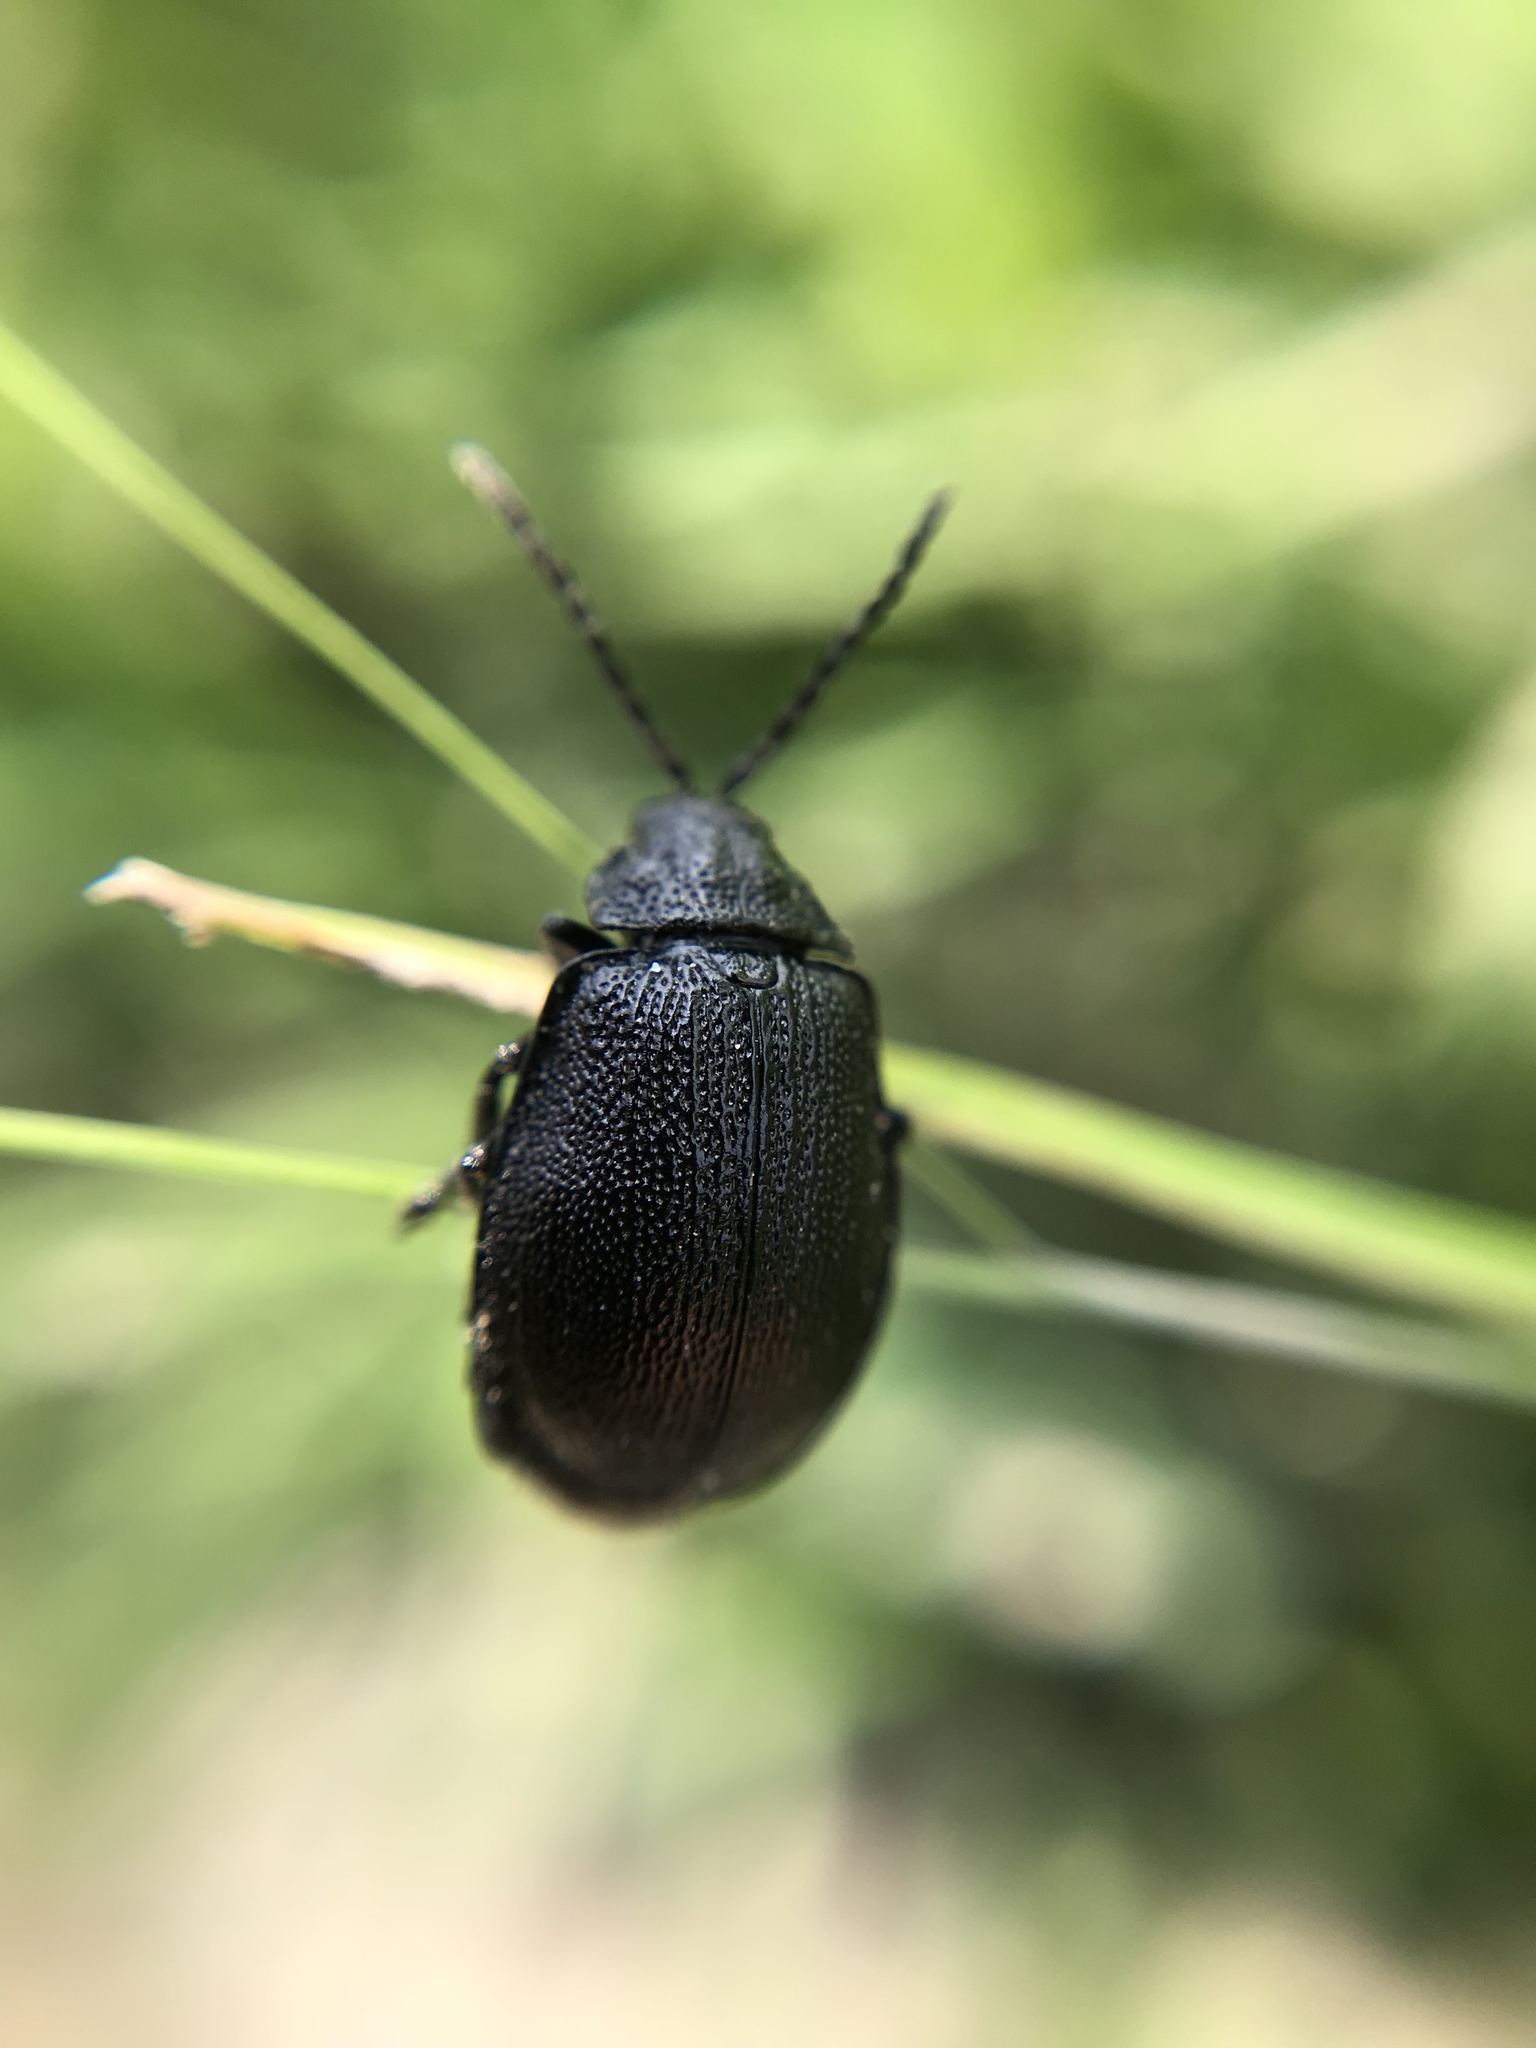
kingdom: Animalia
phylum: Arthropoda
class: Insecta
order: Coleoptera
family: Chrysomelidae
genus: Galeruca
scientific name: Galeruca tanaceti
